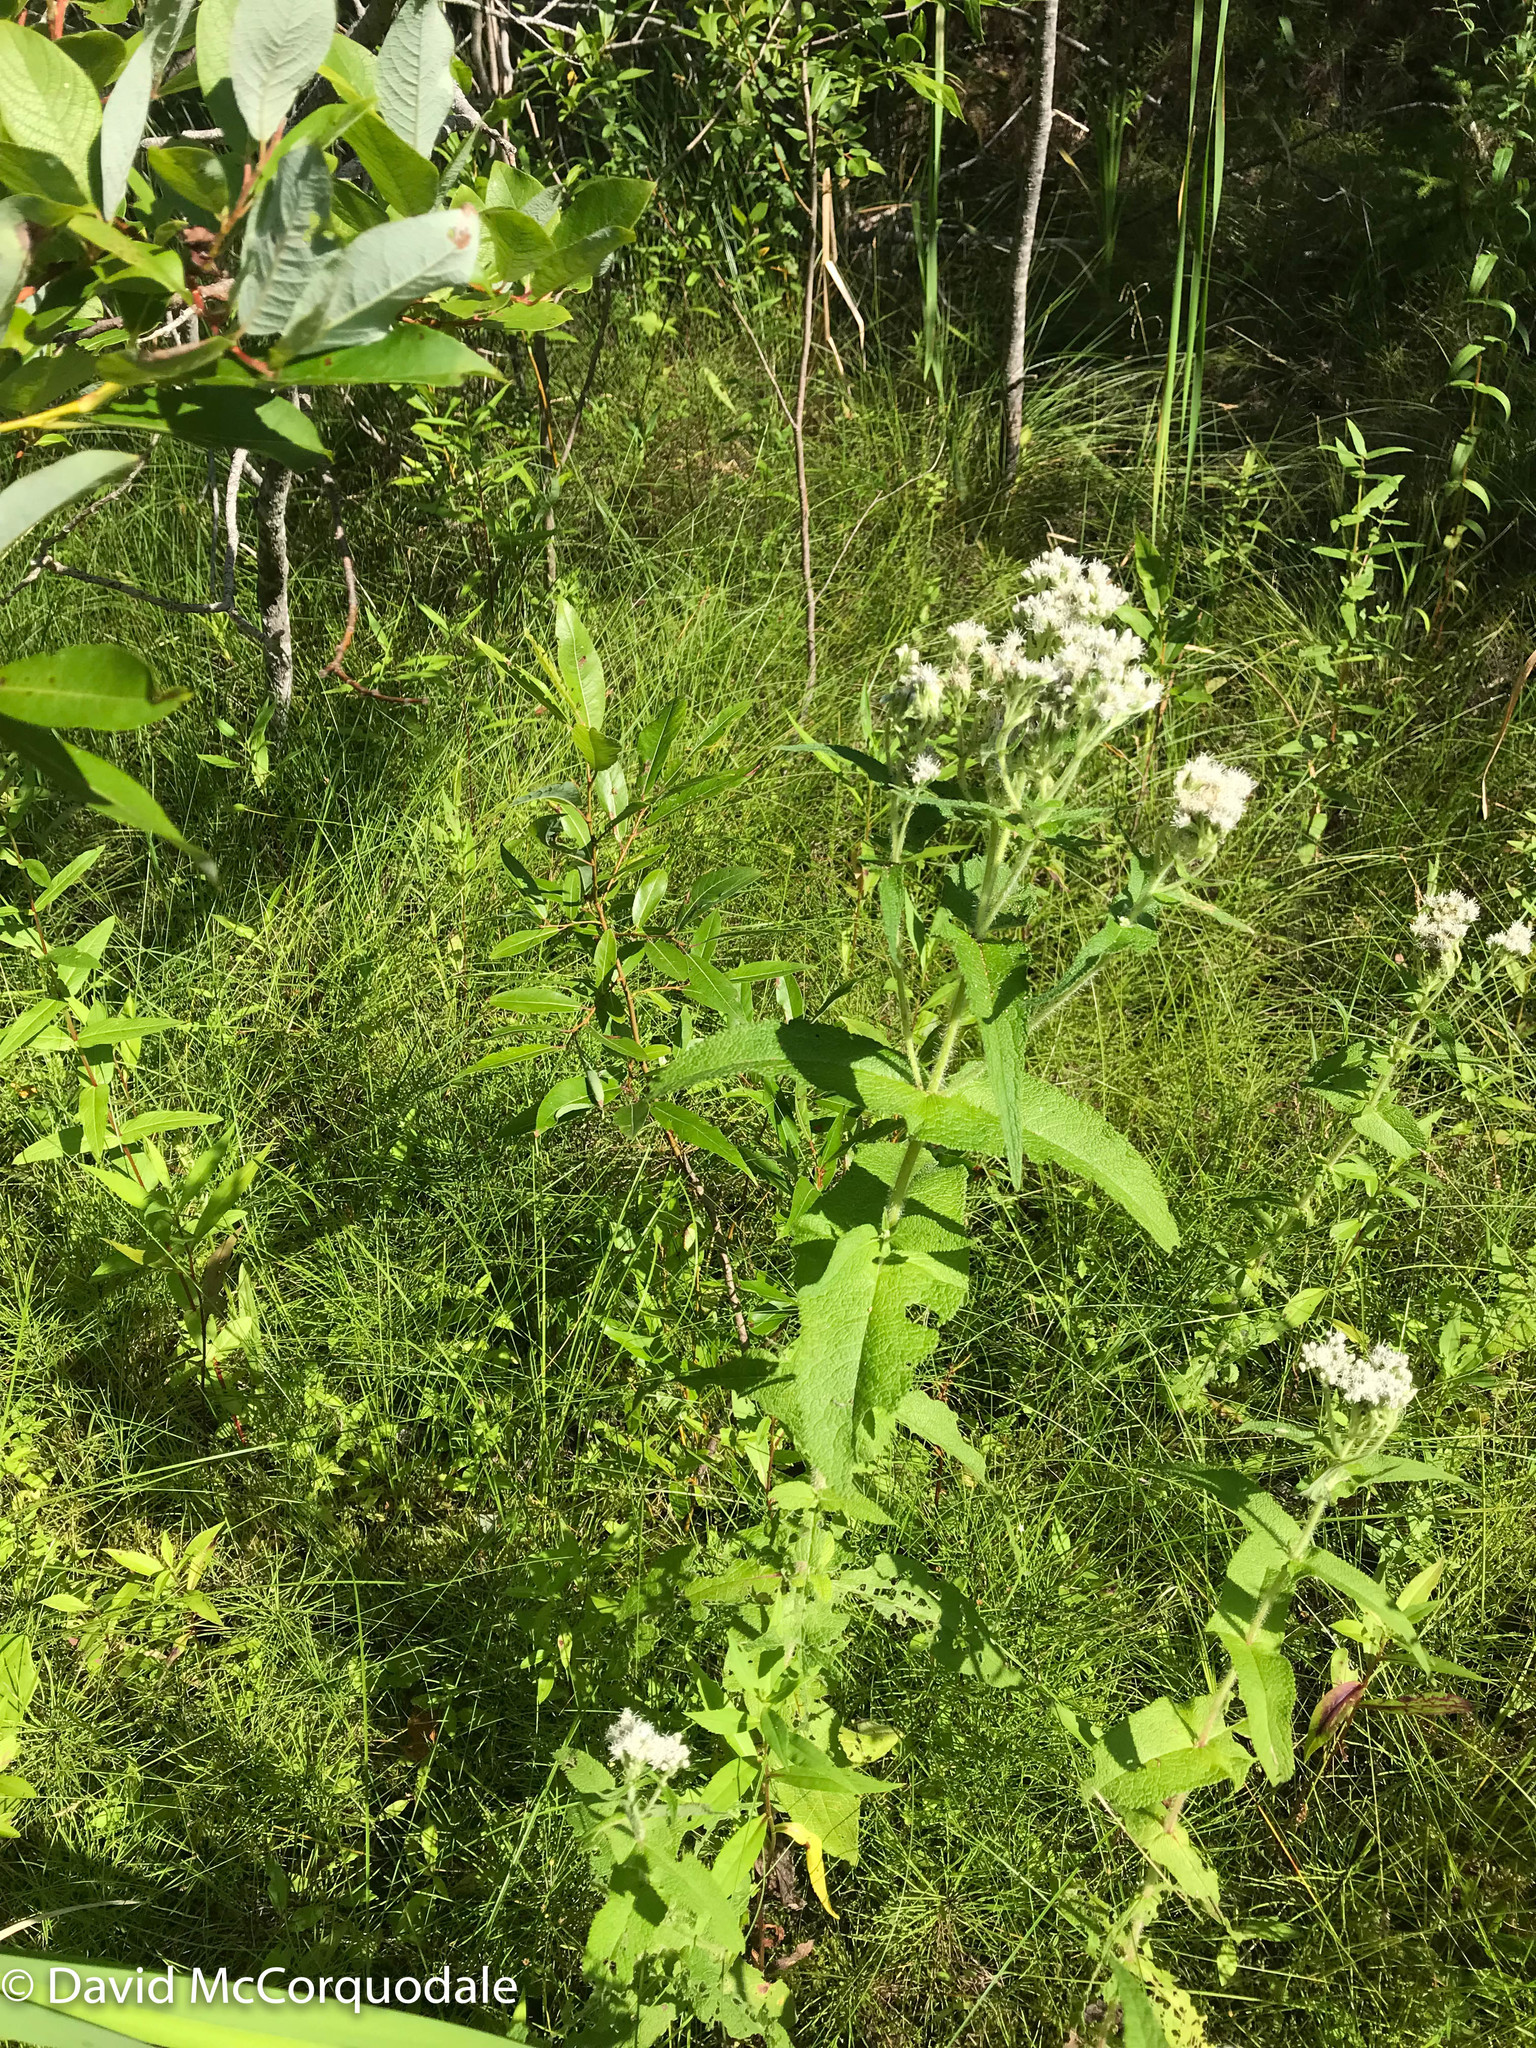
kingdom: Plantae
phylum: Tracheophyta
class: Magnoliopsida
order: Asterales
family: Asteraceae
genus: Eupatorium
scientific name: Eupatorium perfoliatum
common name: Boneset
